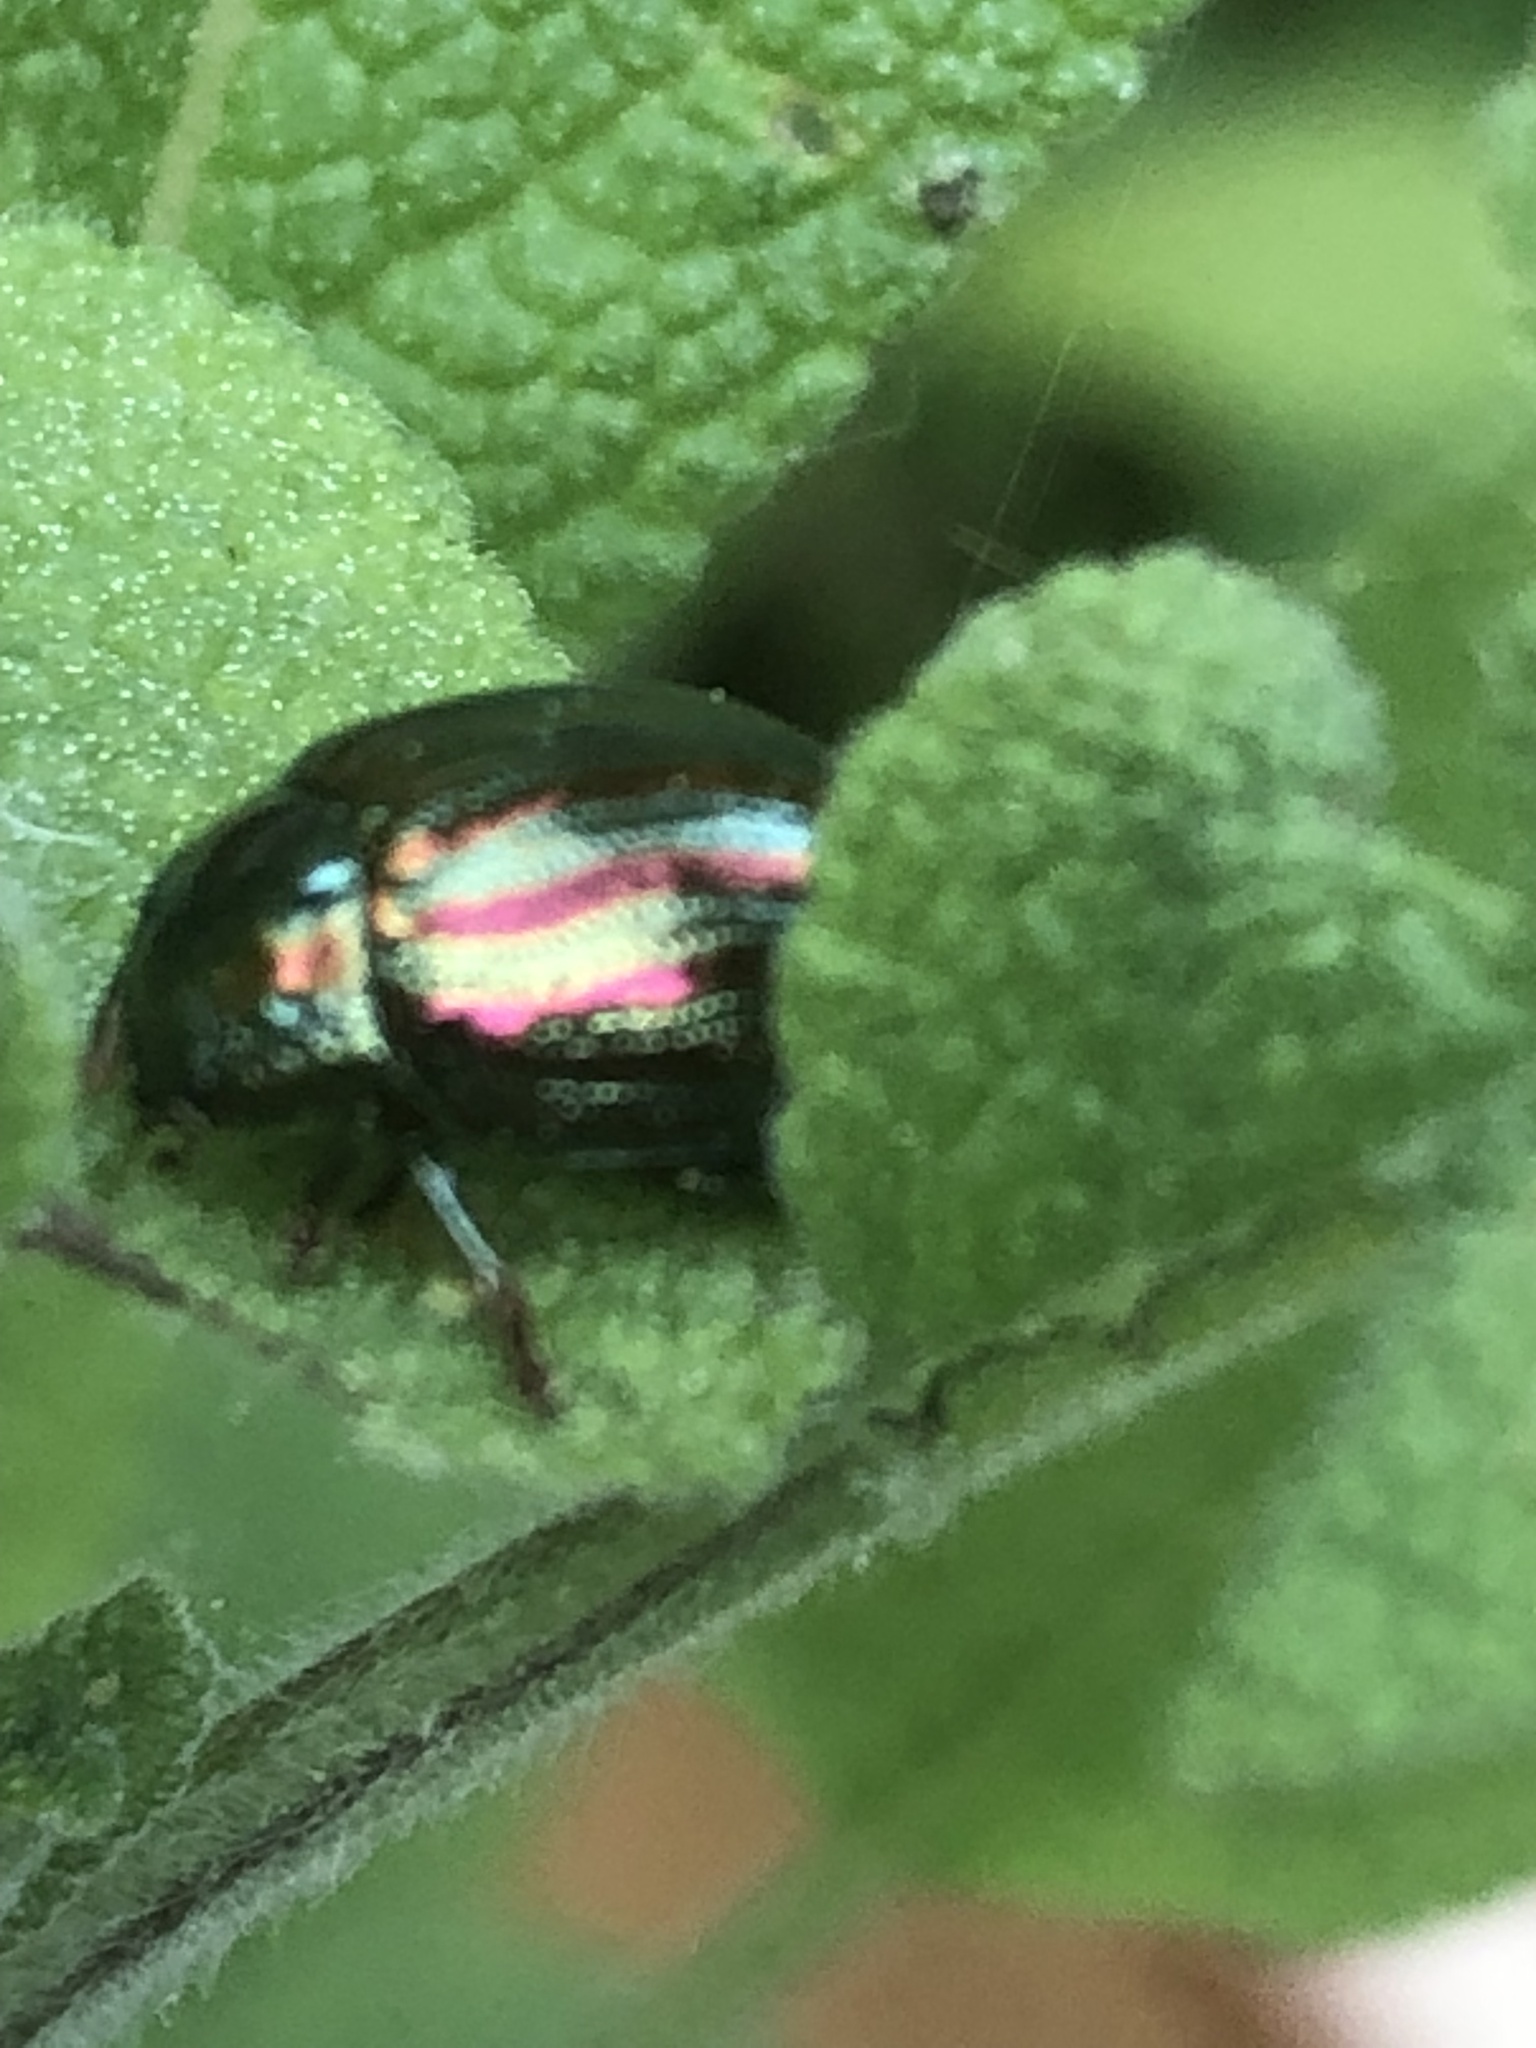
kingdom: Animalia
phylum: Arthropoda
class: Insecta
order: Coleoptera
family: Chrysomelidae
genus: Chrysolina
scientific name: Chrysolina americana
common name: Rosemary beetle
